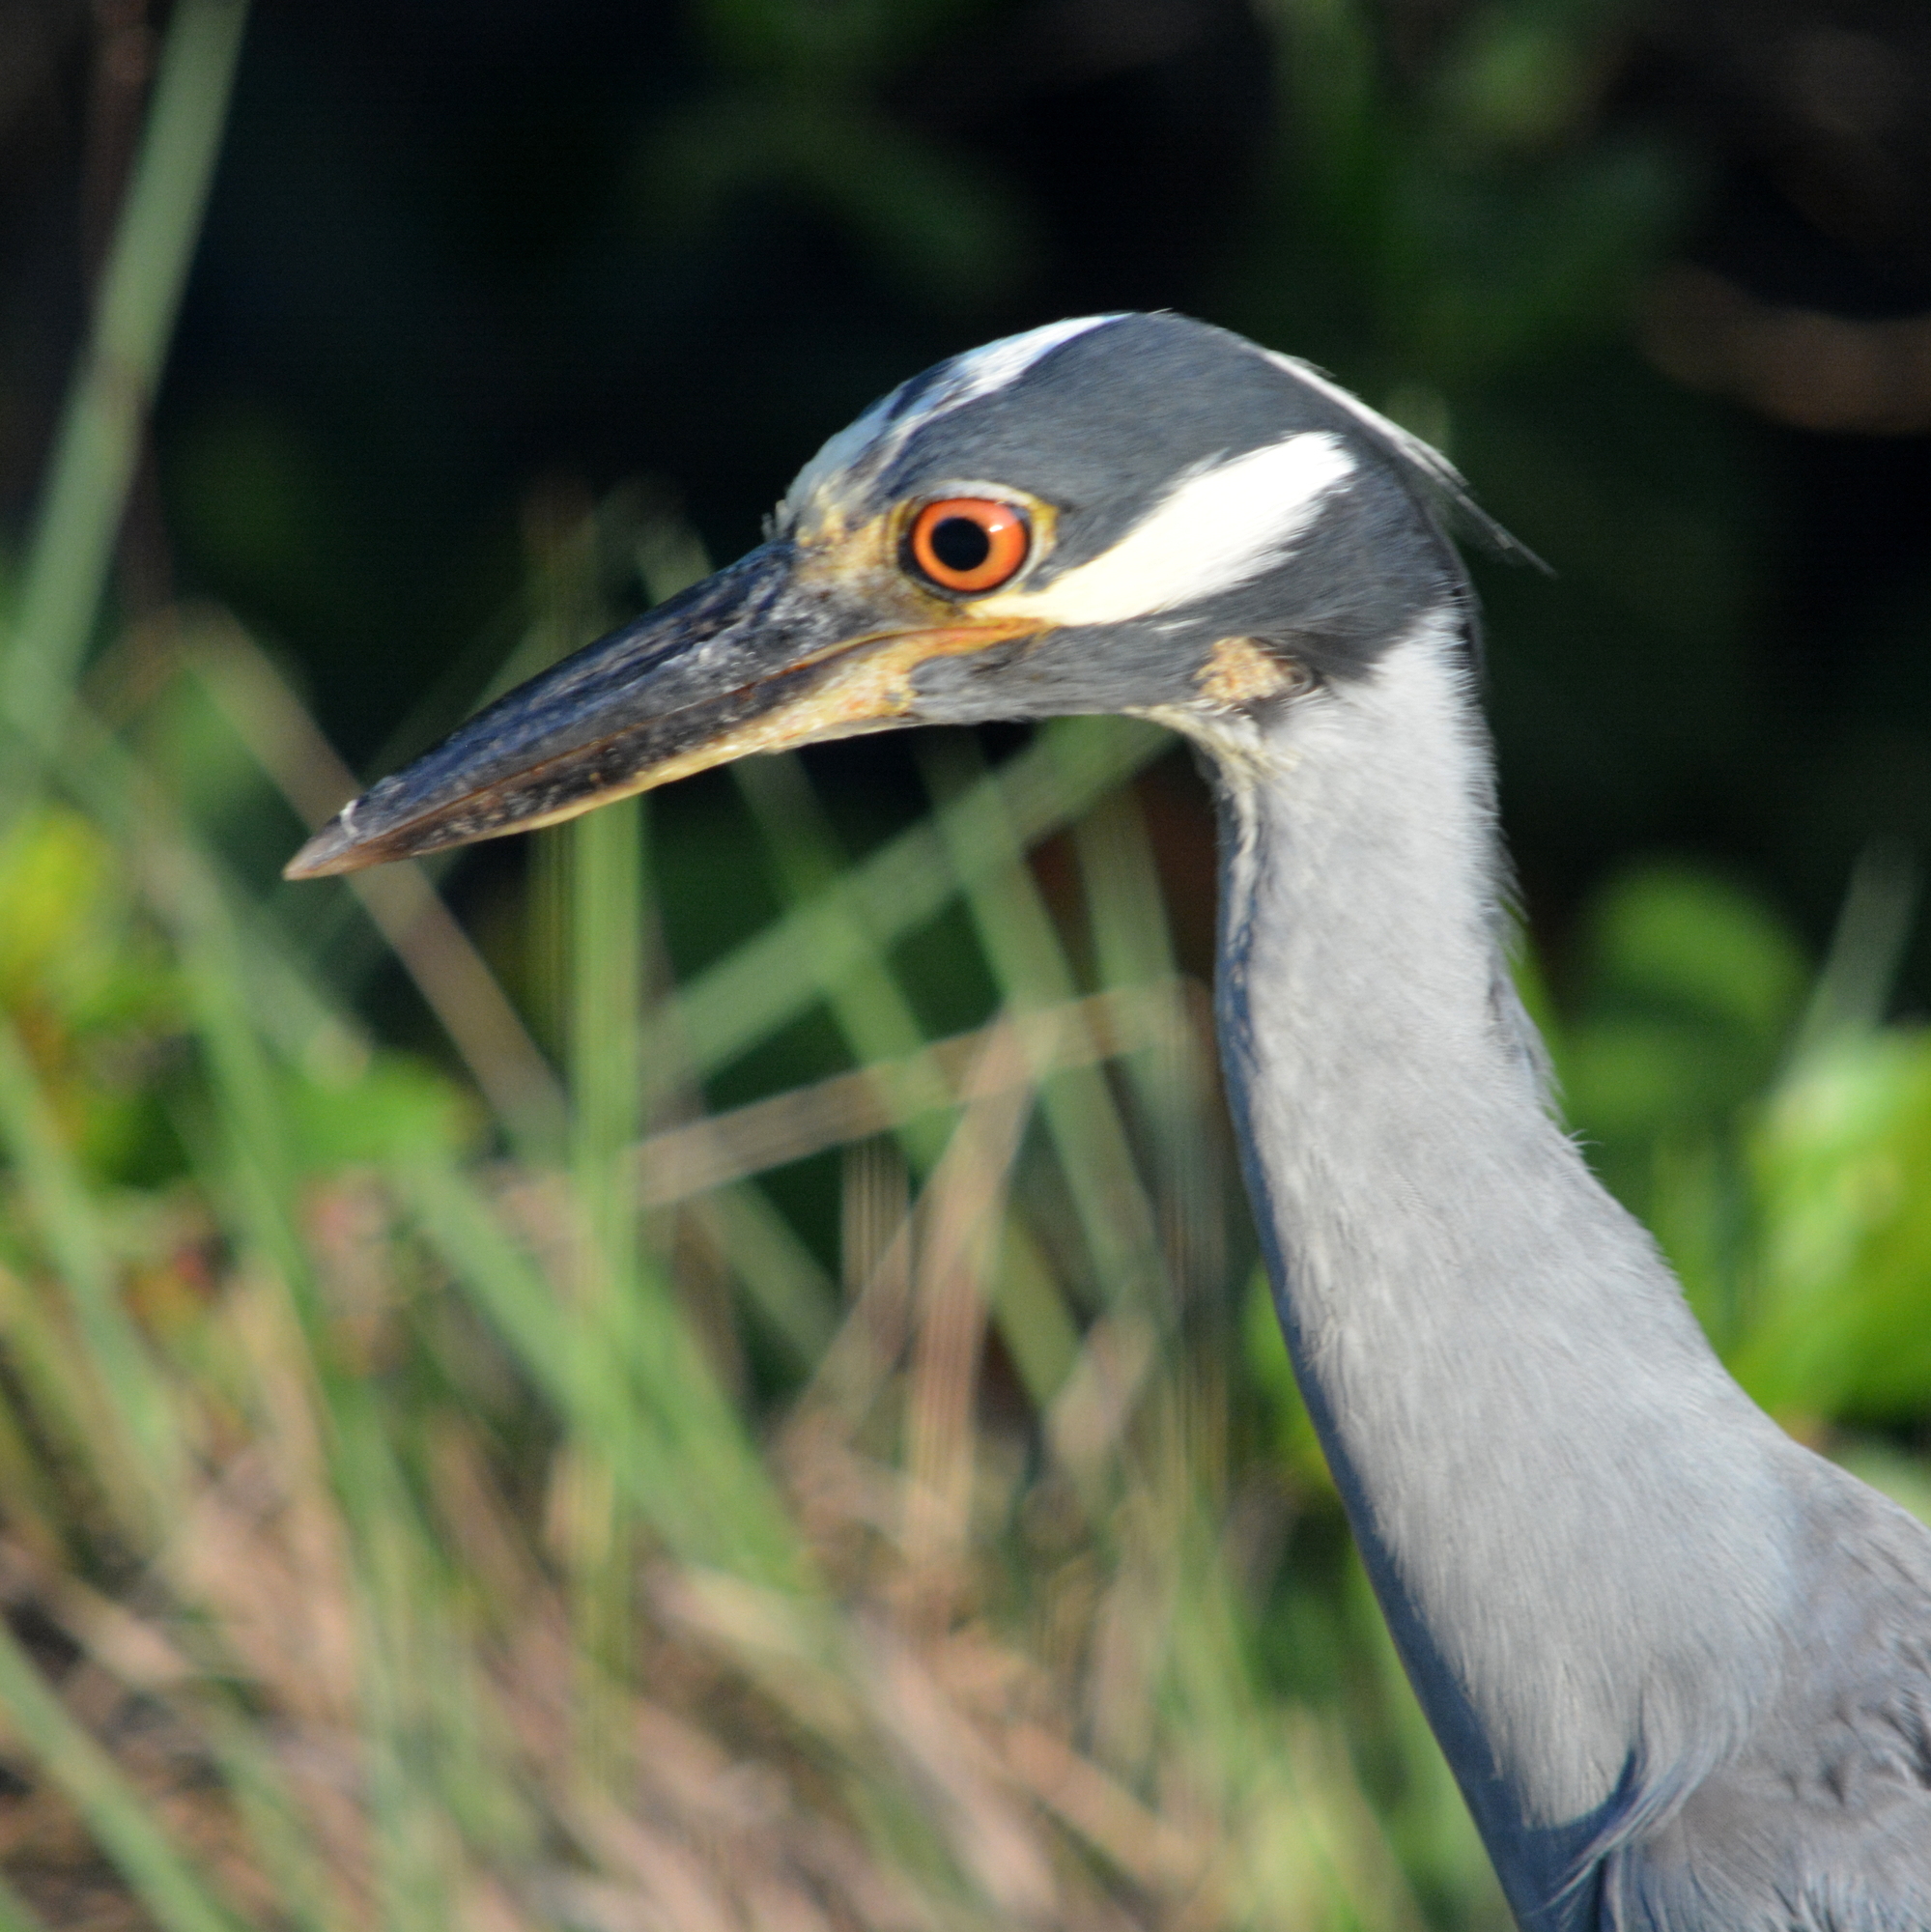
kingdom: Animalia
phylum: Chordata
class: Aves
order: Pelecaniformes
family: Ardeidae
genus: Nyctanassa
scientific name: Nyctanassa violacea
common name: Yellow-crowned night heron
